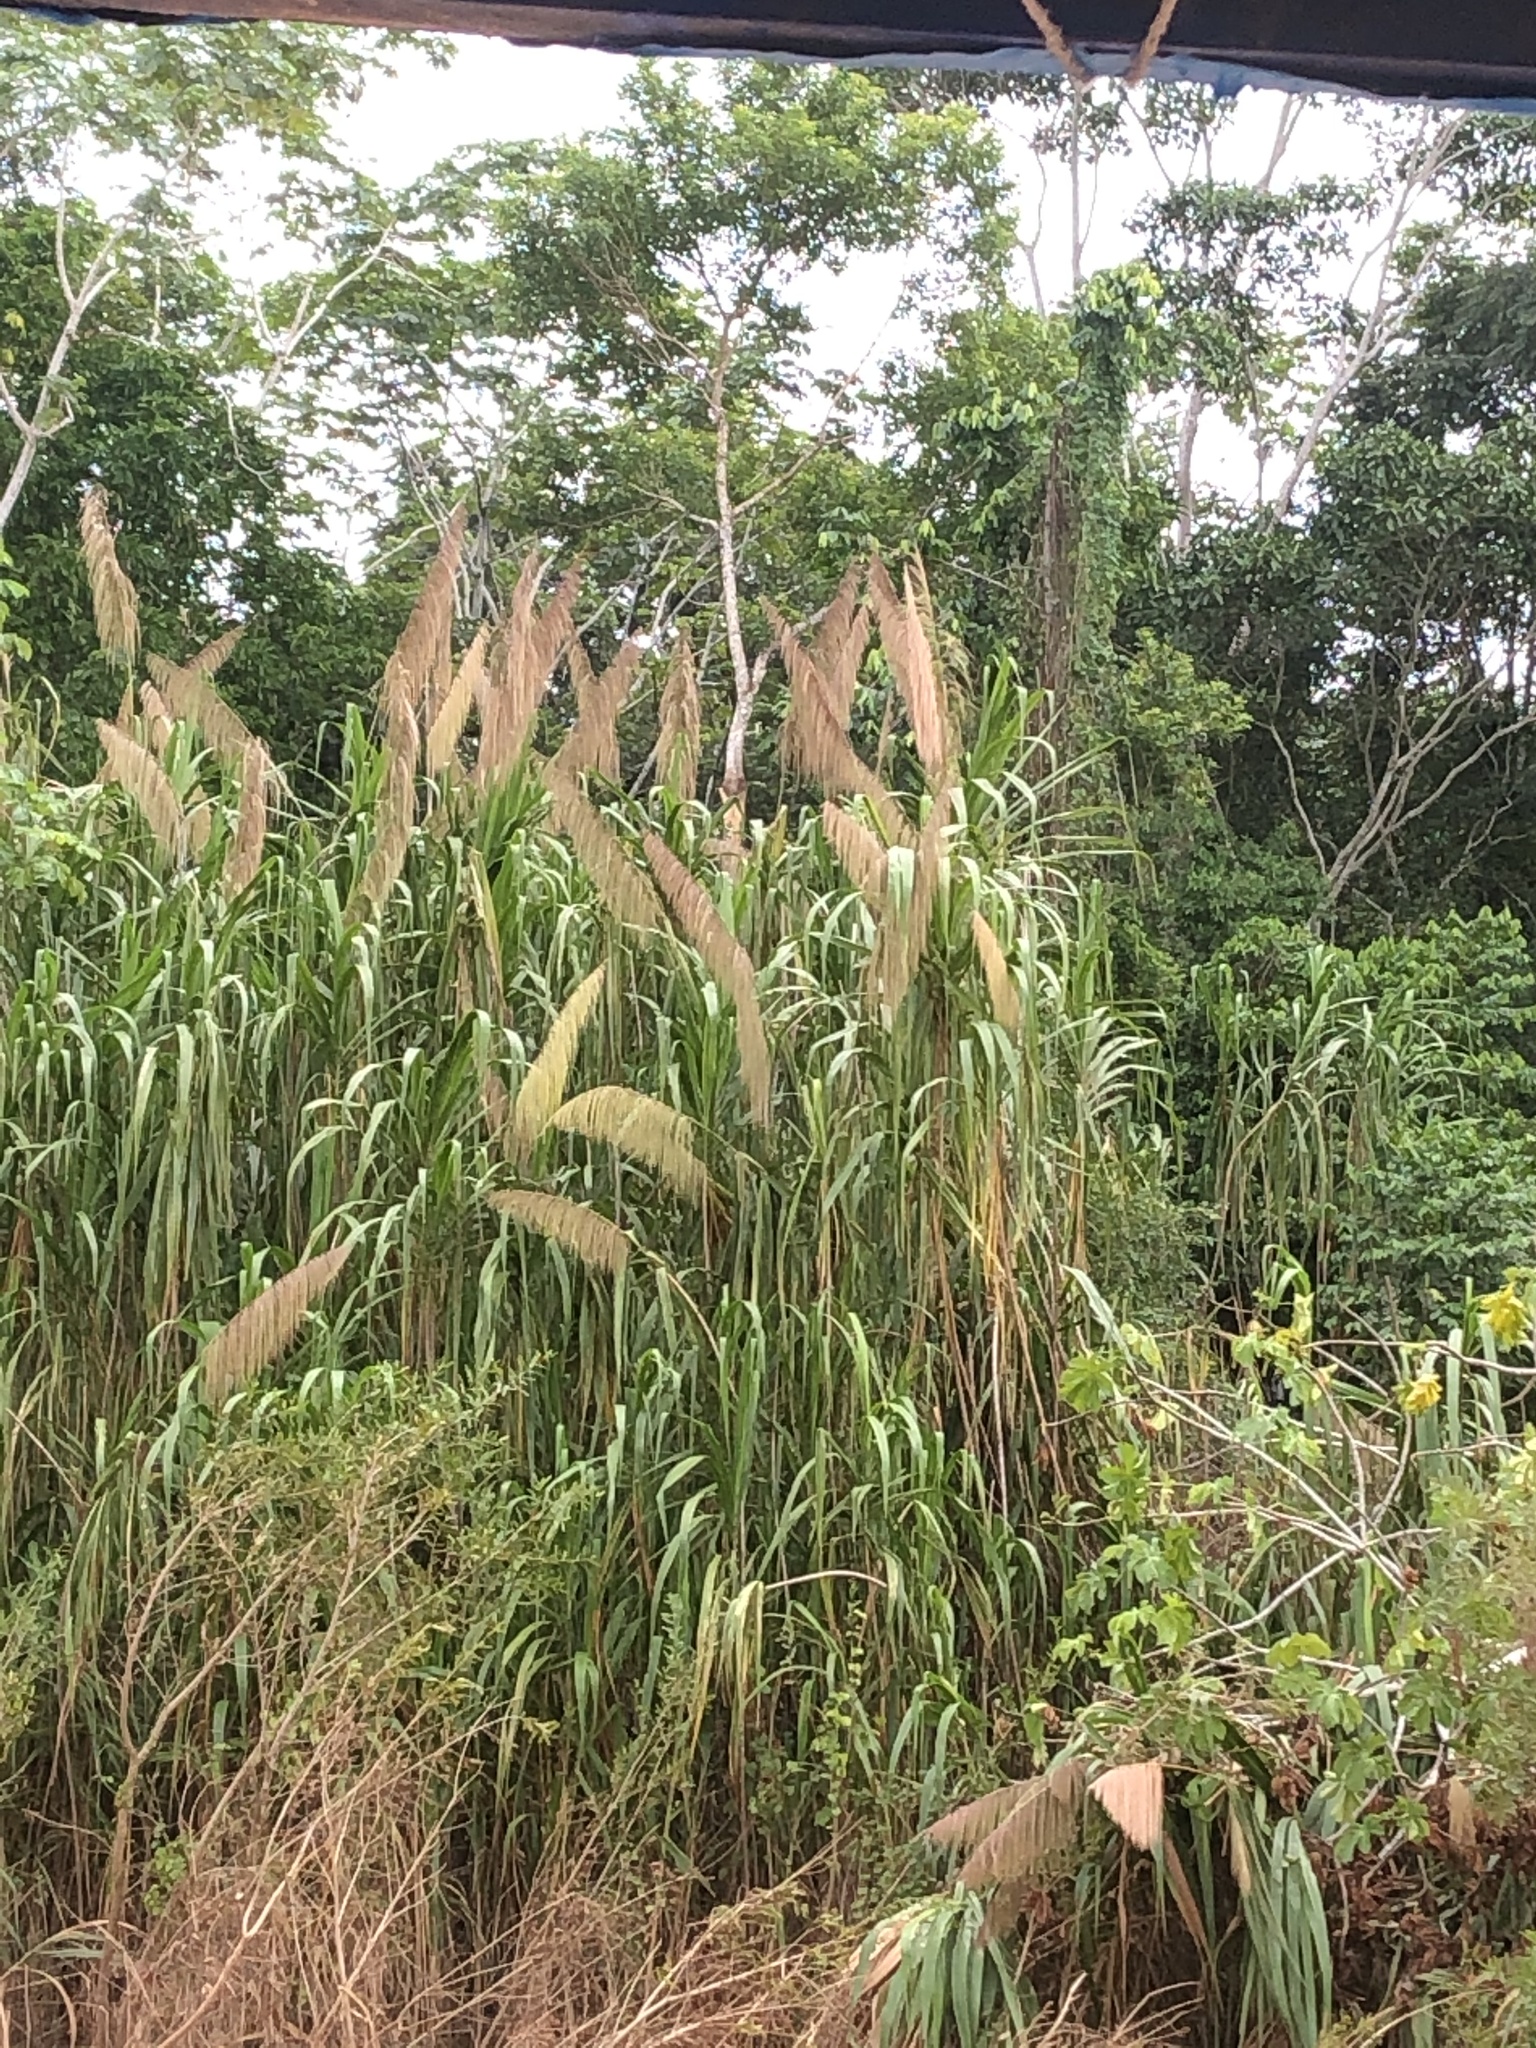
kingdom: Plantae
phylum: Tracheophyta
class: Liliopsida
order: Poales
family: Poaceae
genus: Gynerium
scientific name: Gynerium sagittatum
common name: Wild cane
